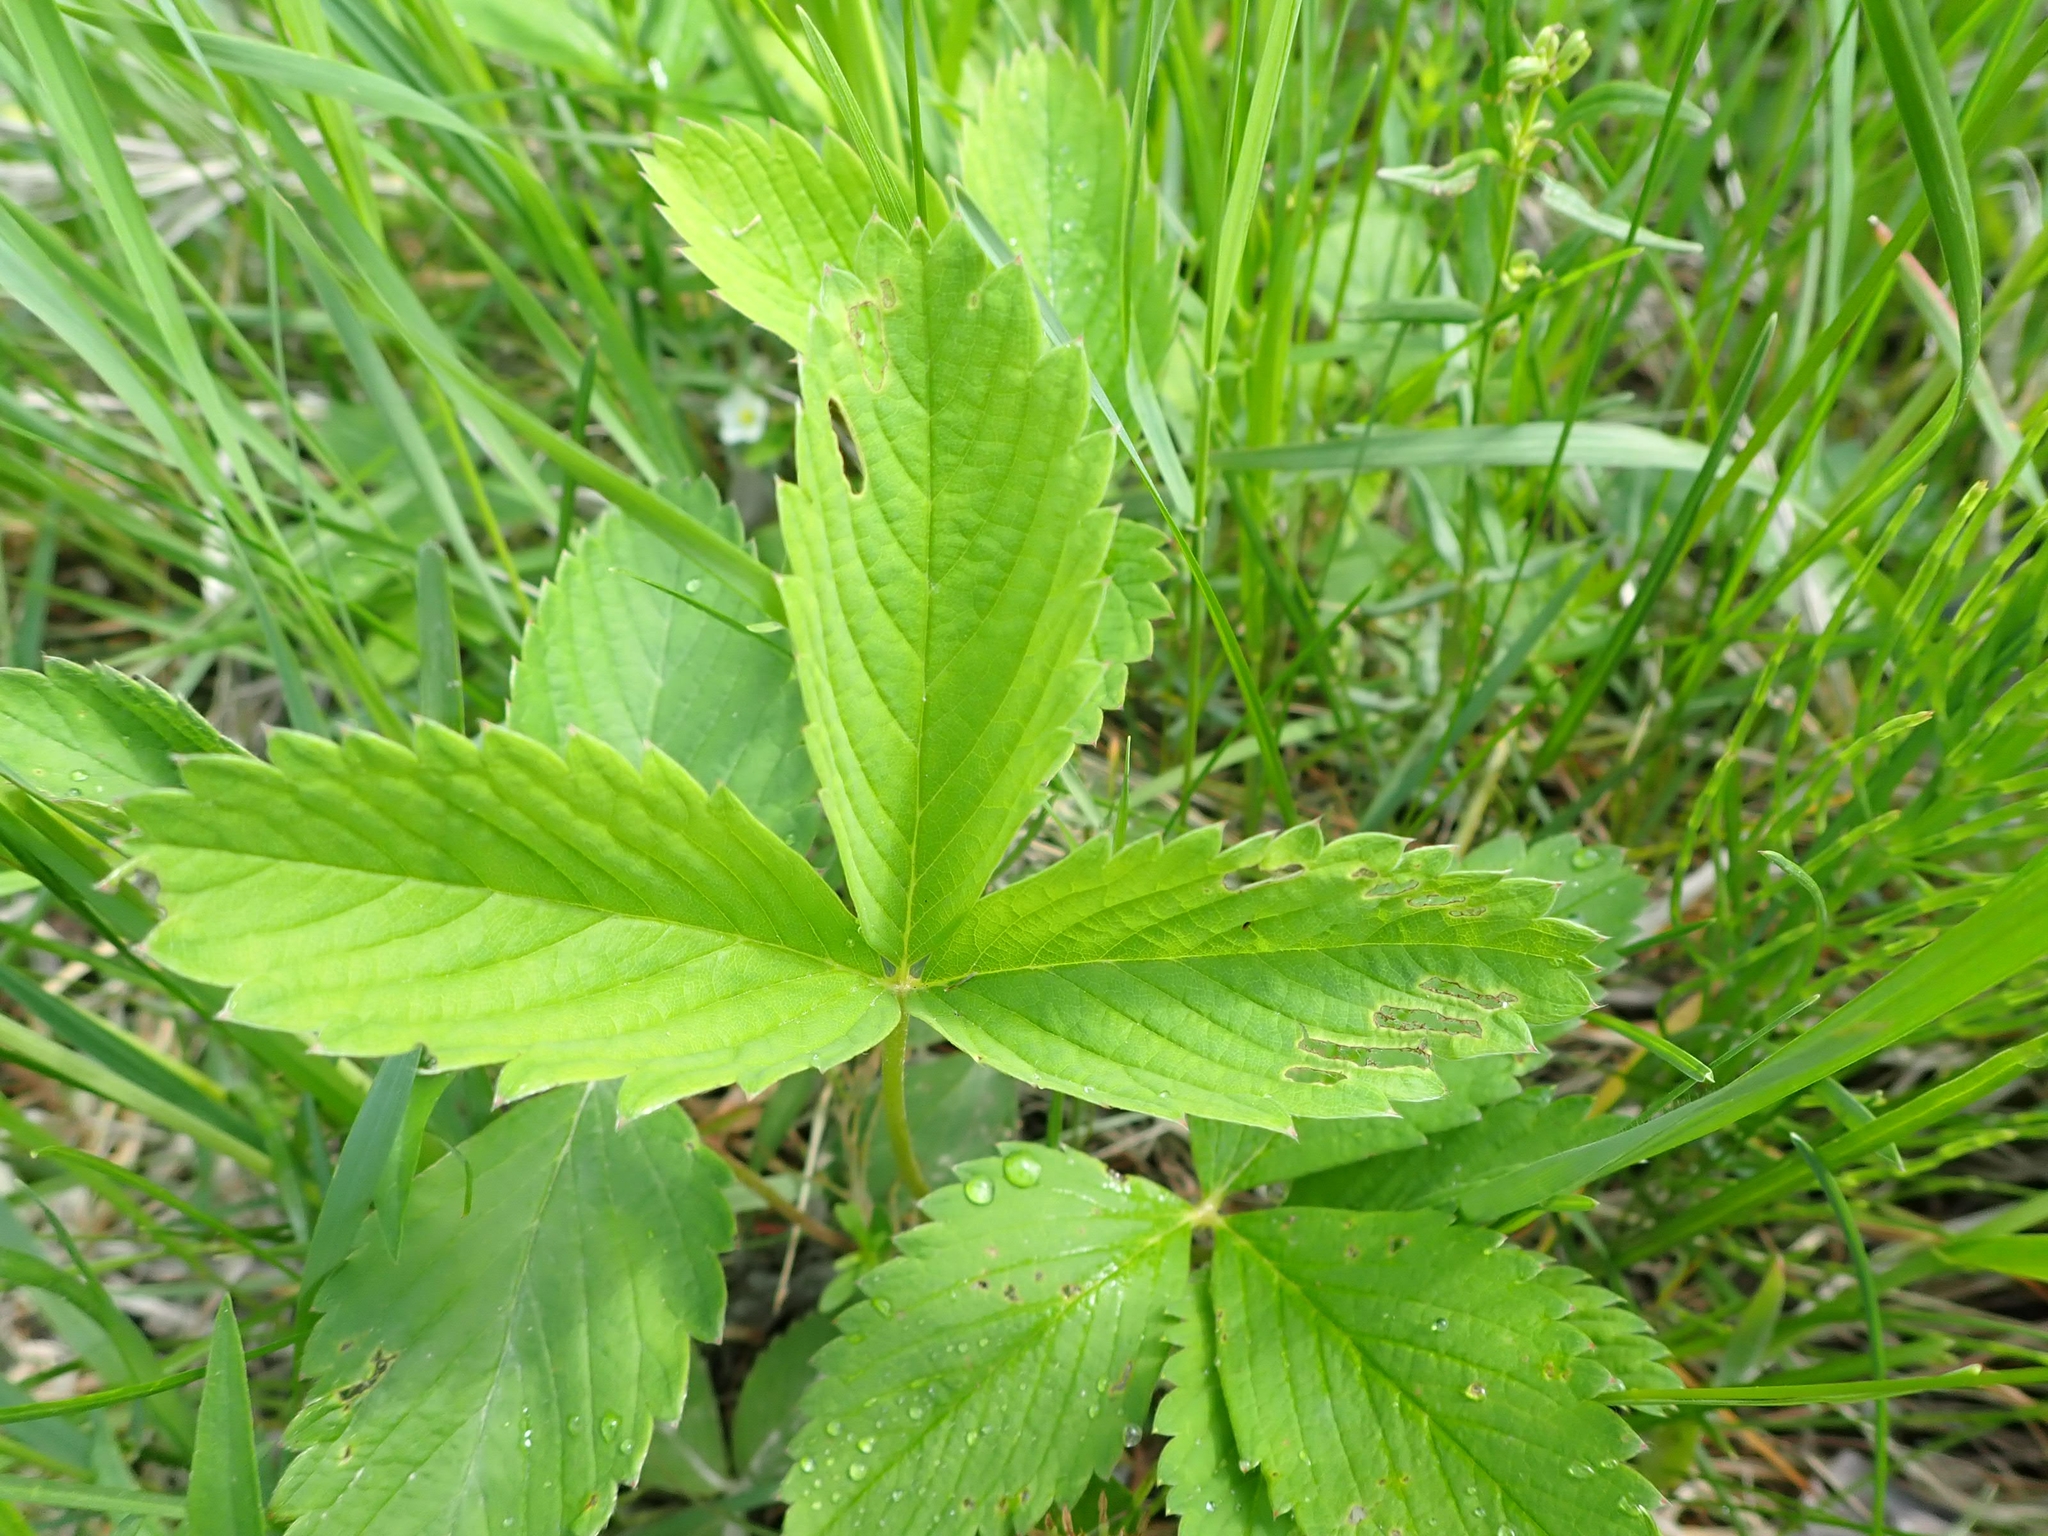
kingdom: Plantae
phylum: Tracheophyta
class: Magnoliopsida
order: Rosales
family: Rosaceae
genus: Fragaria
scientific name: Fragaria virginiana
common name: Thickleaved wild strawberry
